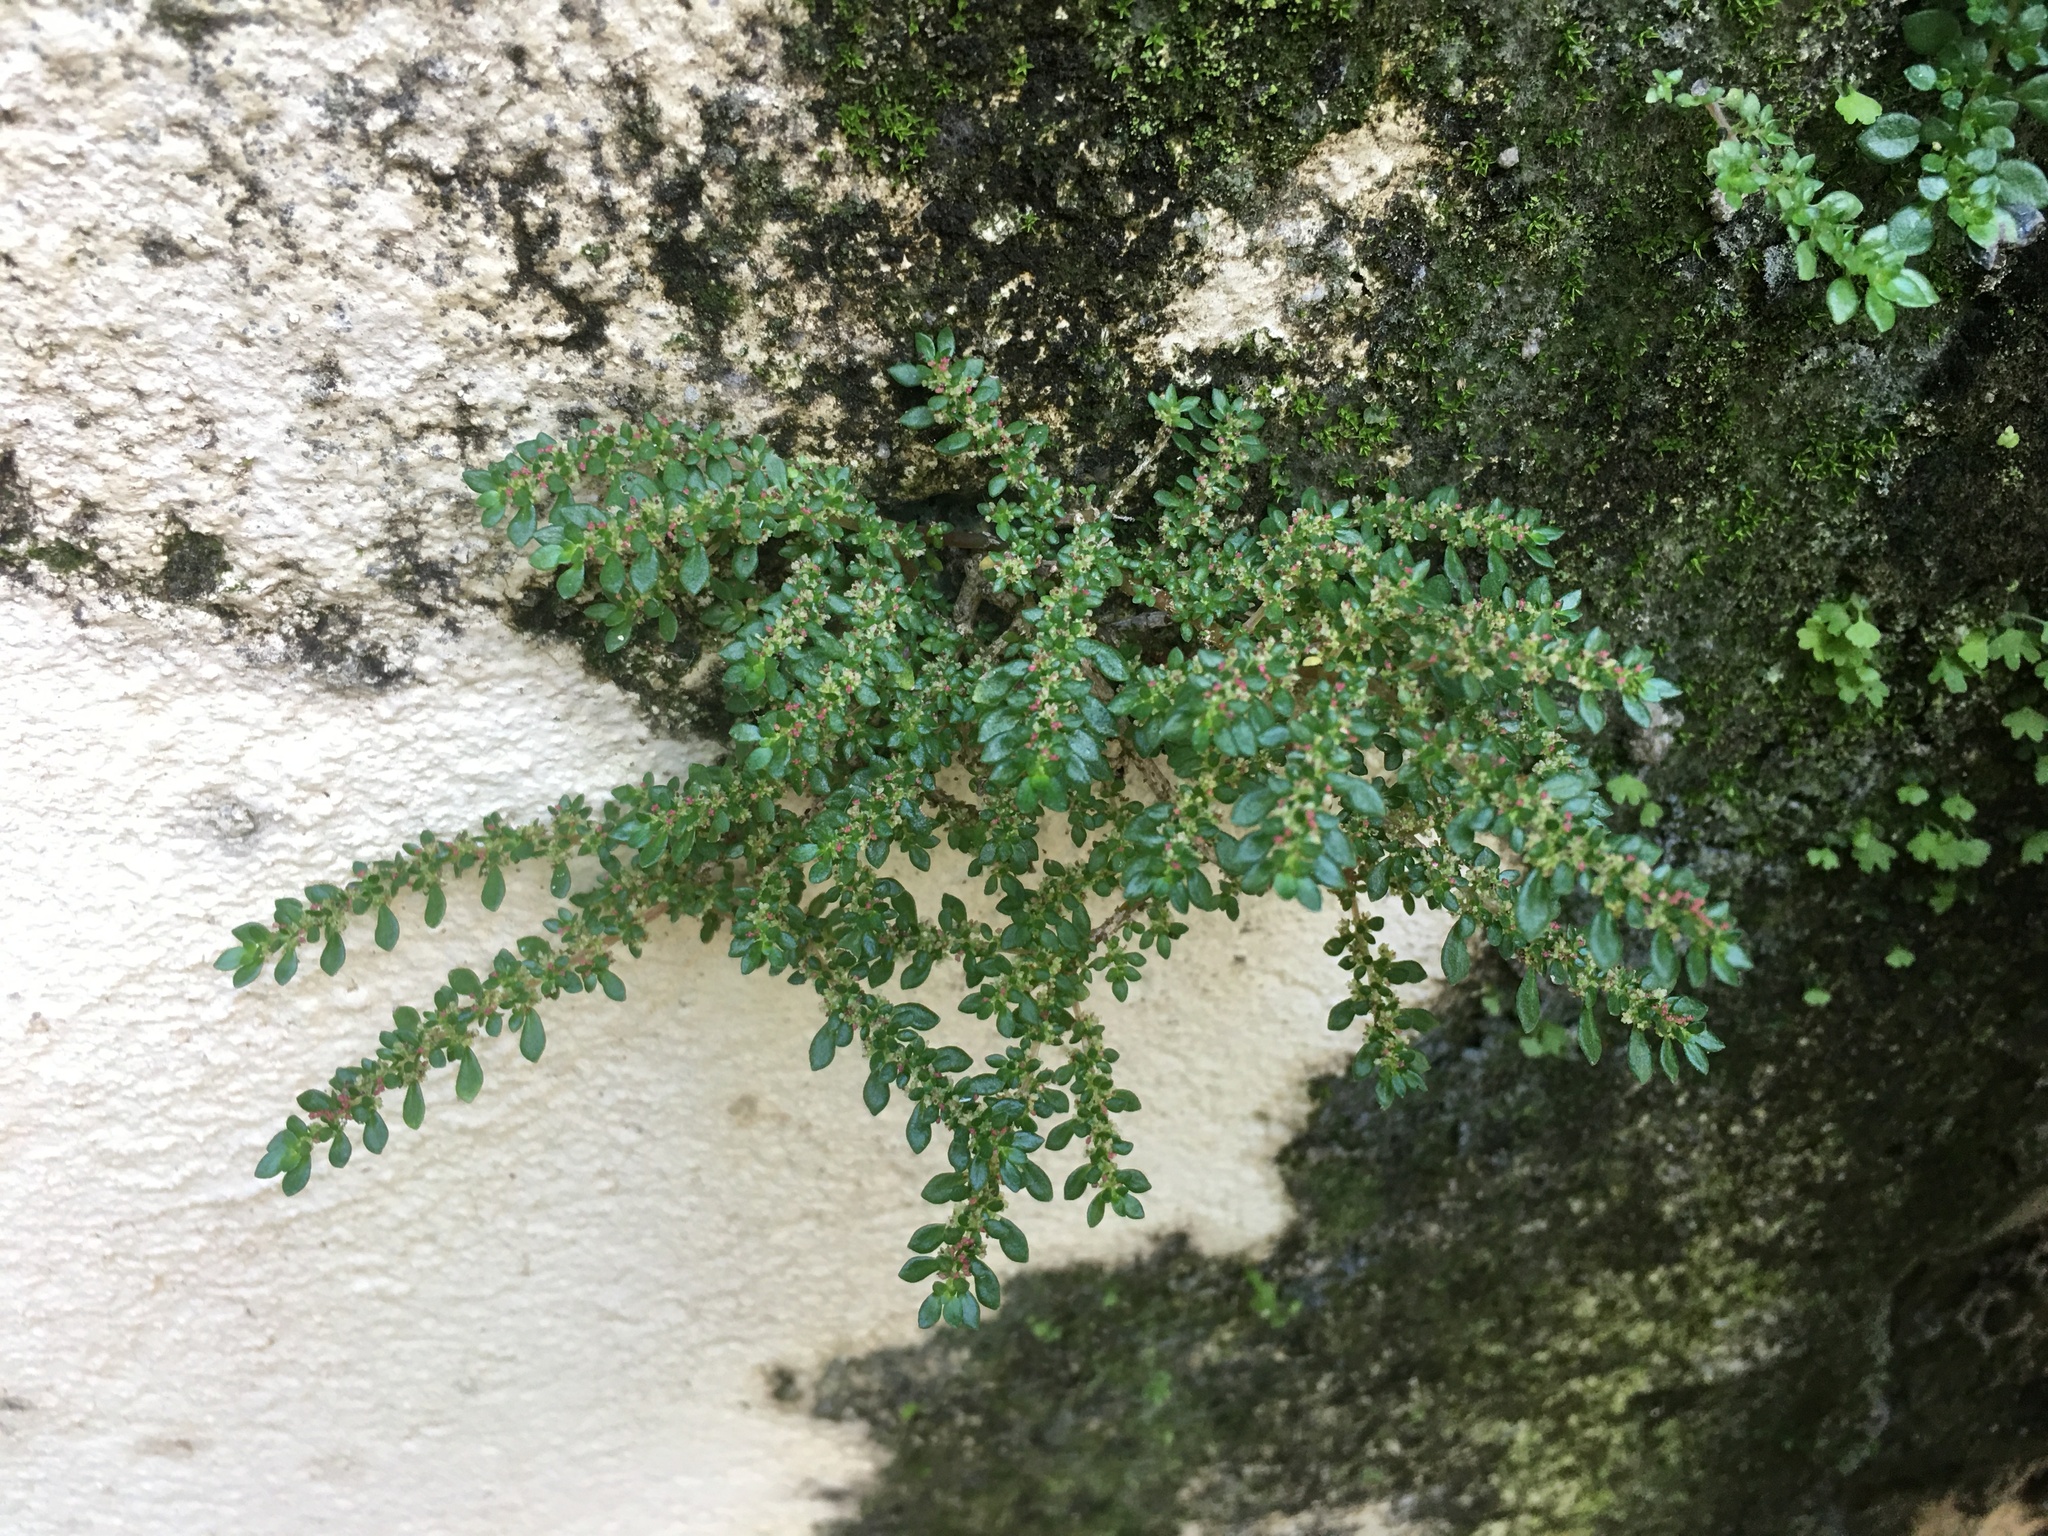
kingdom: Plantae
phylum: Tracheophyta
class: Magnoliopsida
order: Rosales
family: Urticaceae
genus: Pilea
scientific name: Pilea microphylla
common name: Artillery-plant
